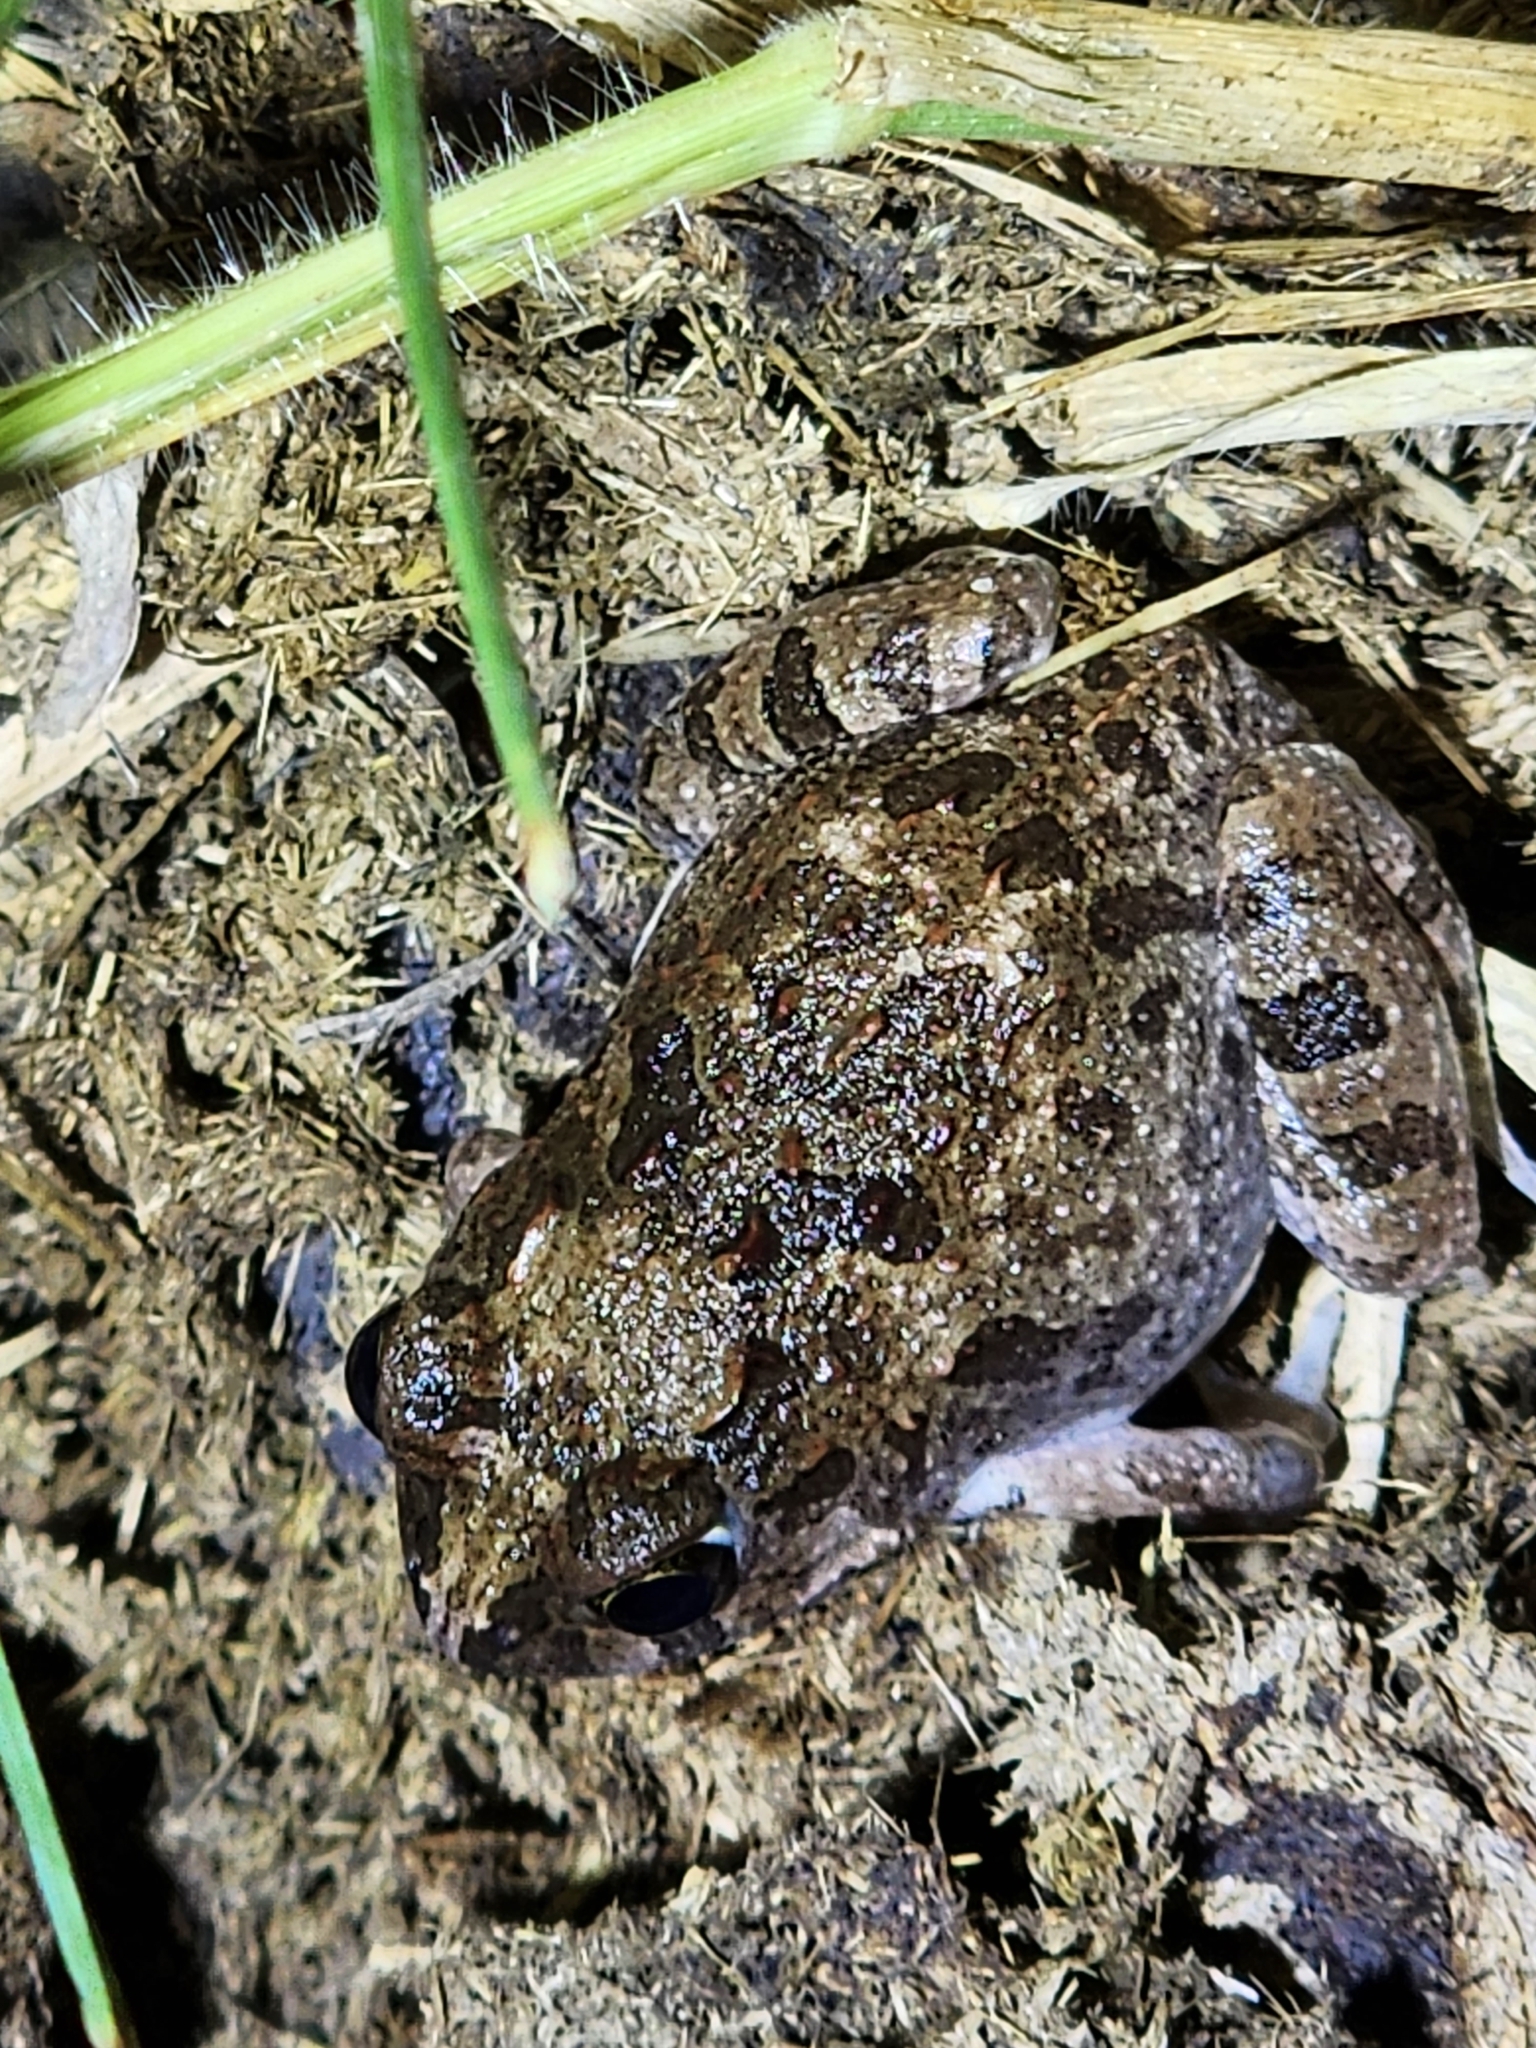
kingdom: Animalia
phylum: Chordata
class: Amphibia
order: Anura
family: Limnodynastidae
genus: Platyplectrum
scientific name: Platyplectrum ornatum
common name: Ornate burrowing frog
